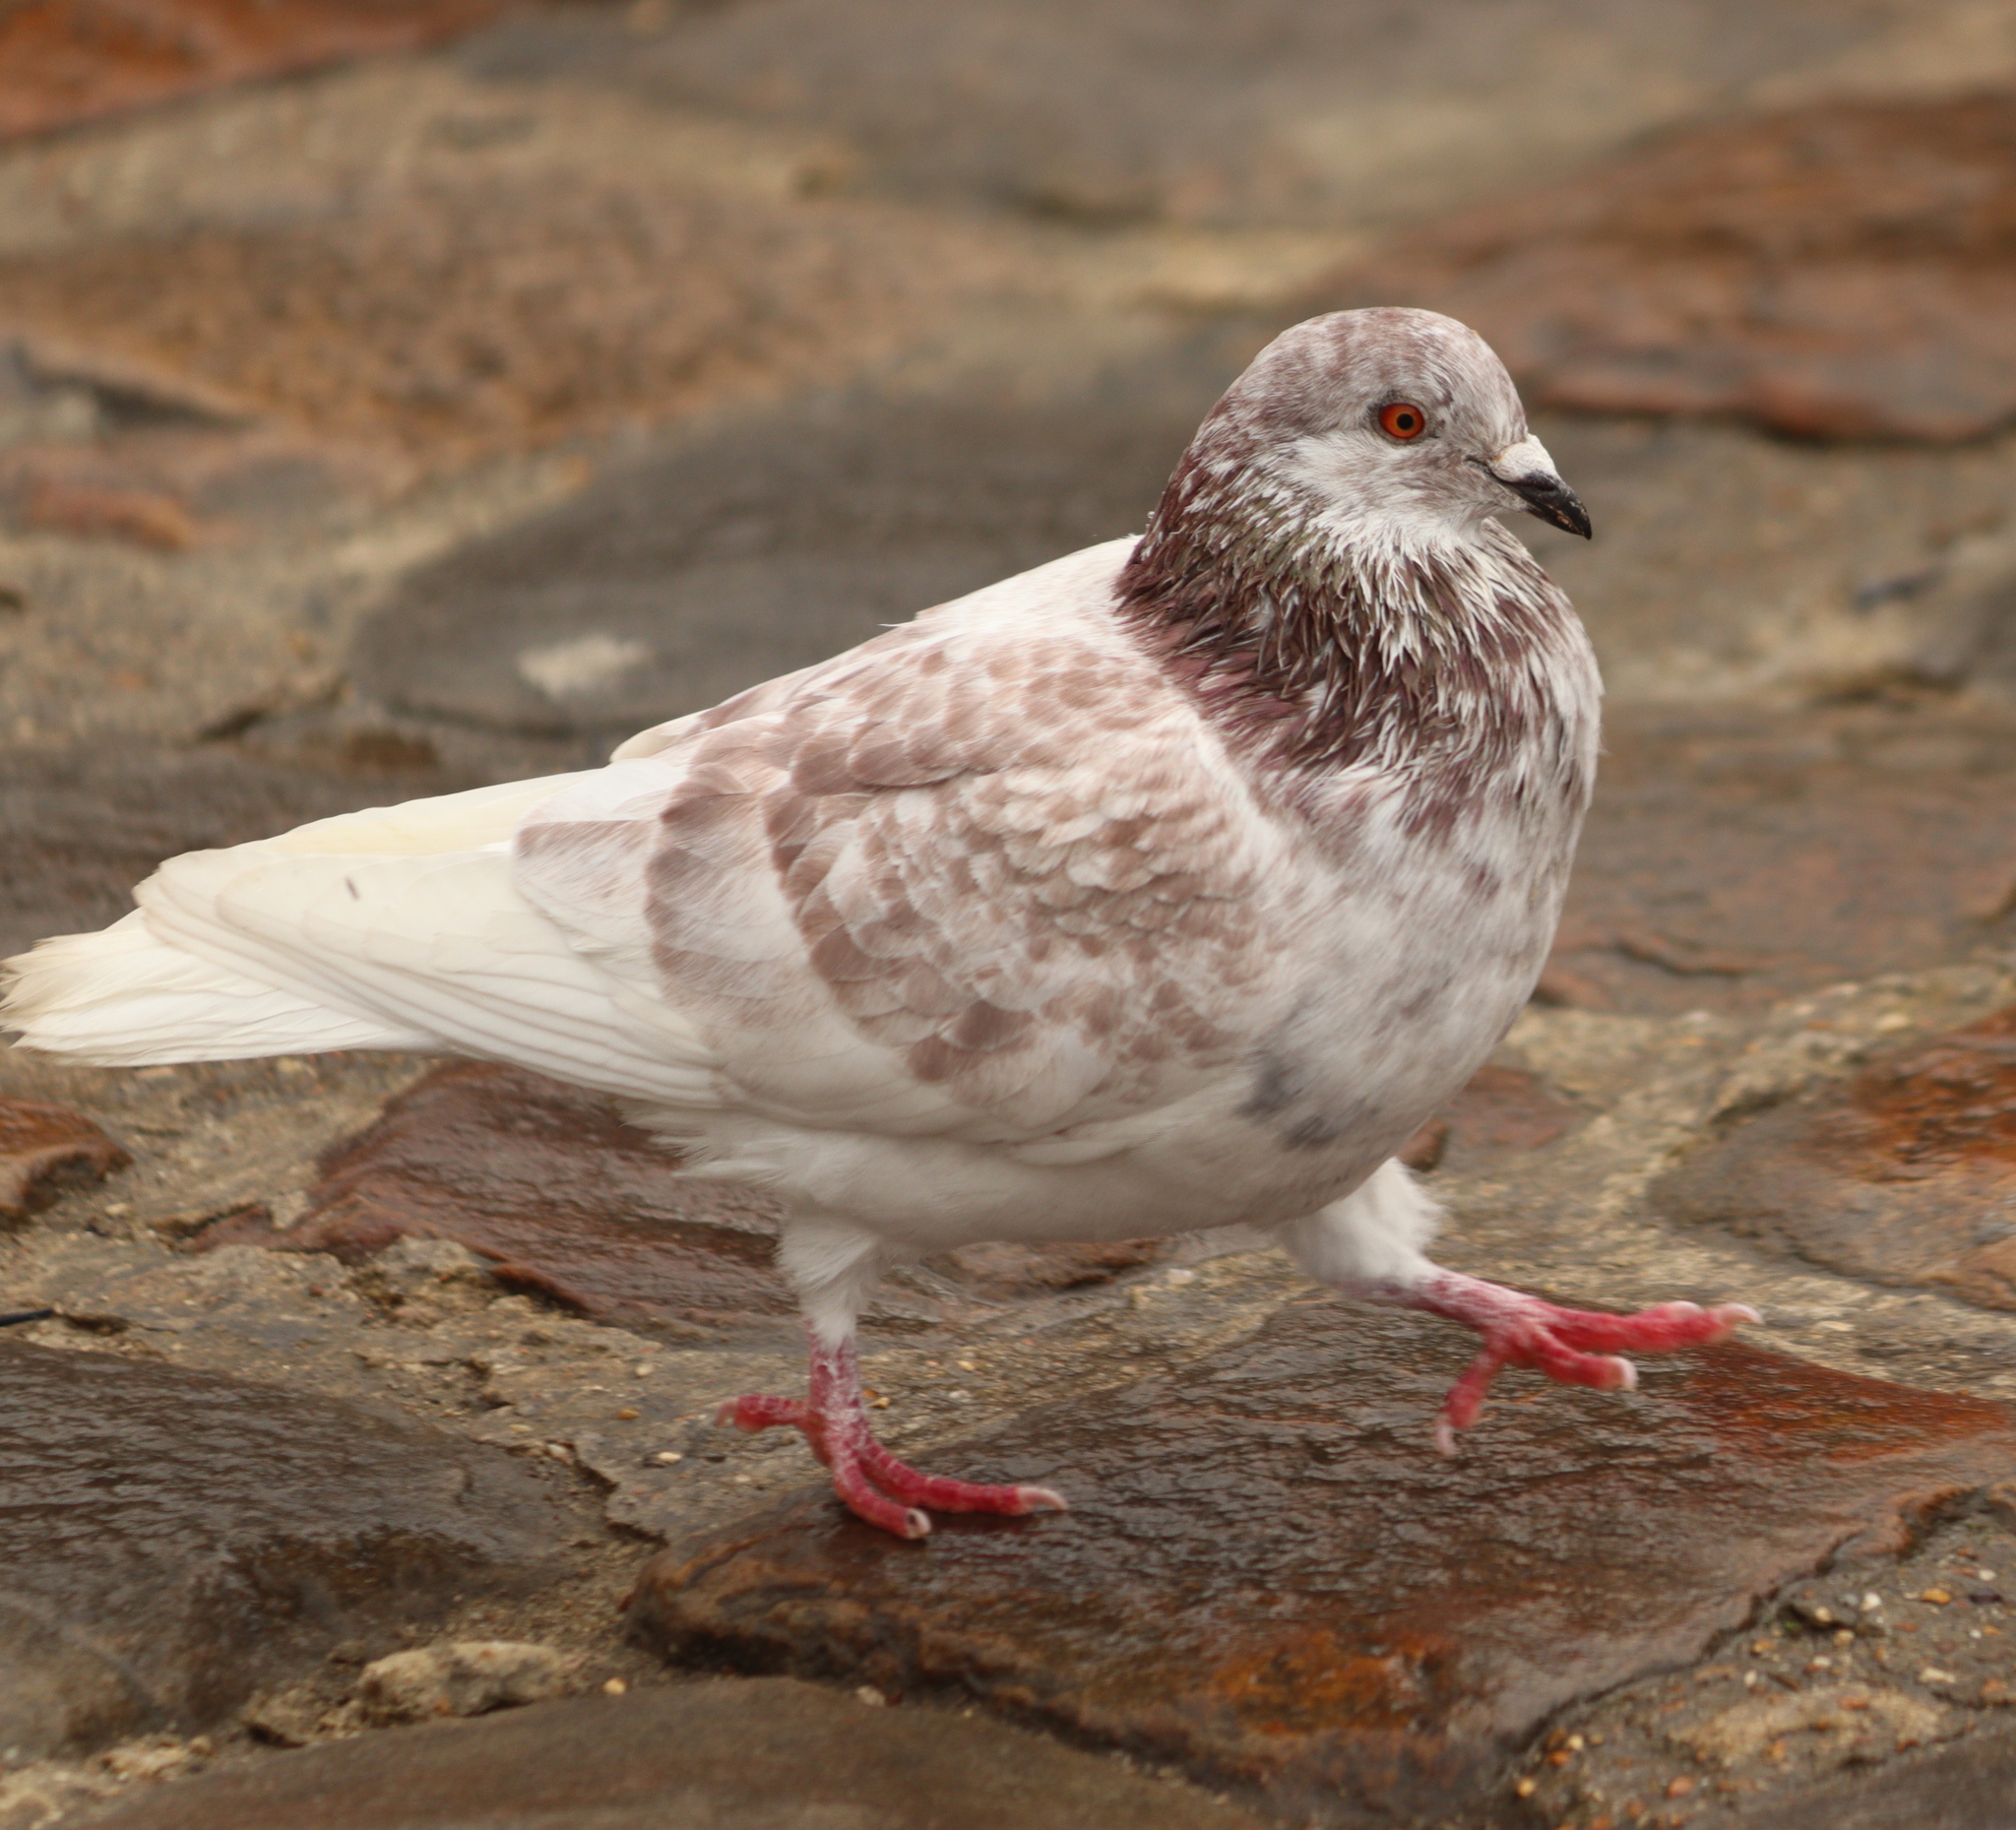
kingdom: Animalia
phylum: Chordata
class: Aves
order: Columbiformes
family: Columbidae
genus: Columba
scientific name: Columba livia
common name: Rock pigeon
